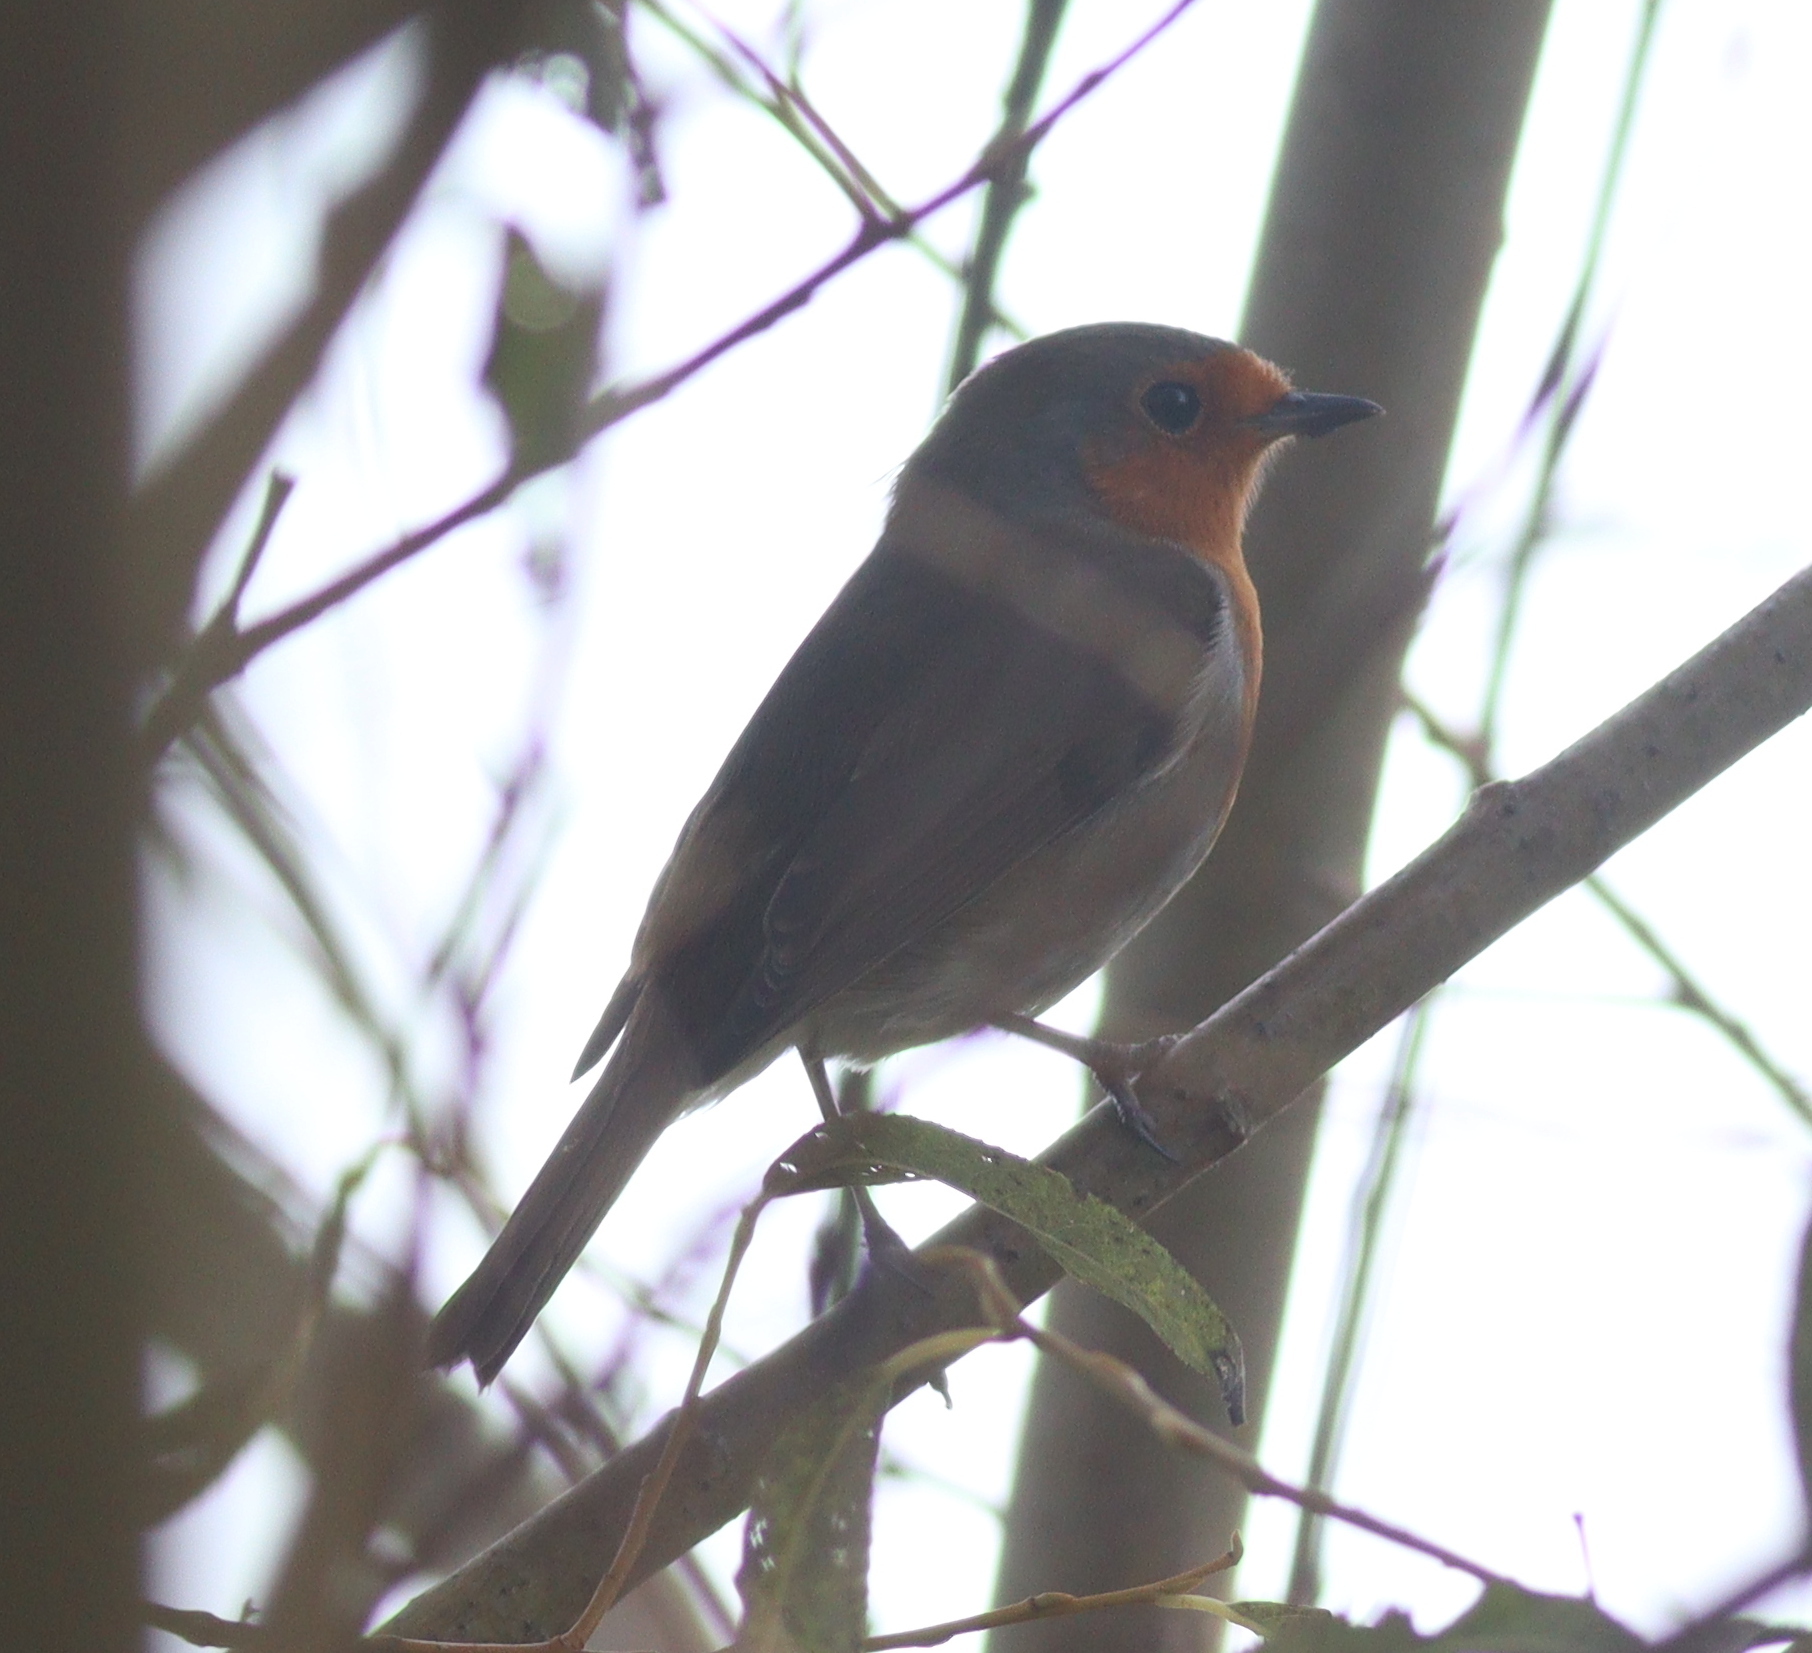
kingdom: Animalia
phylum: Chordata
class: Aves
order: Passeriformes
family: Muscicapidae
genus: Erithacus
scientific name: Erithacus rubecula
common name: European robin
